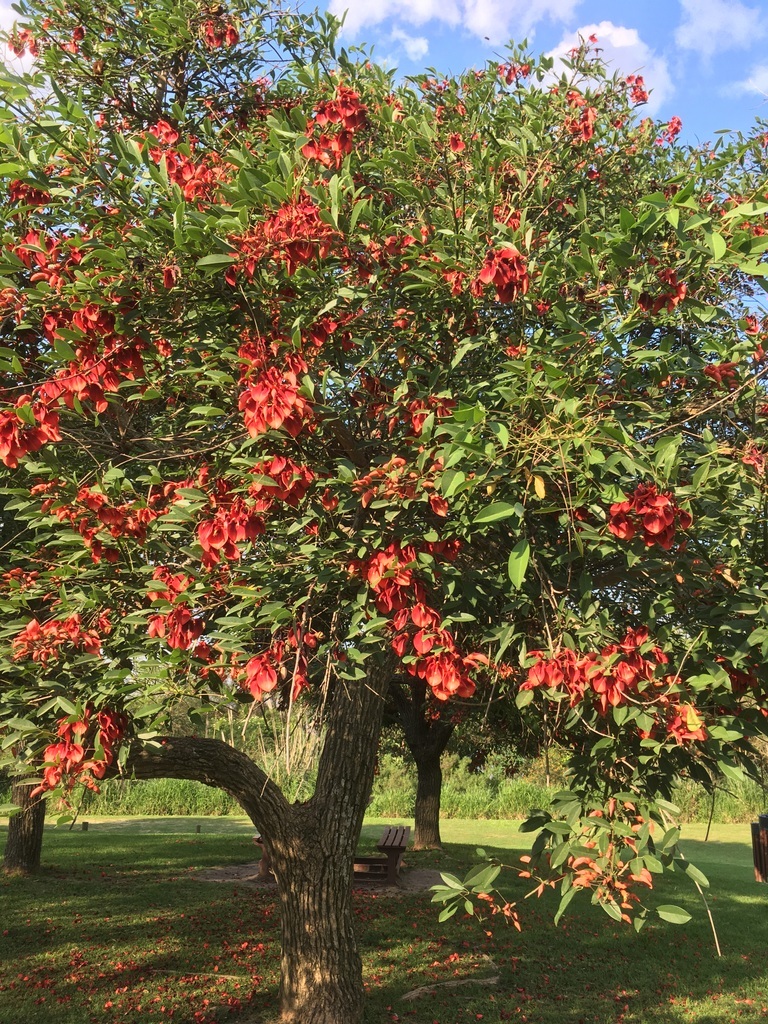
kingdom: Plantae
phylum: Tracheophyta
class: Magnoliopsida
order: Fabales
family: Fabaceae
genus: Erythrina
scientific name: Erythrina crista-galli
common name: Cockspur coral tree
